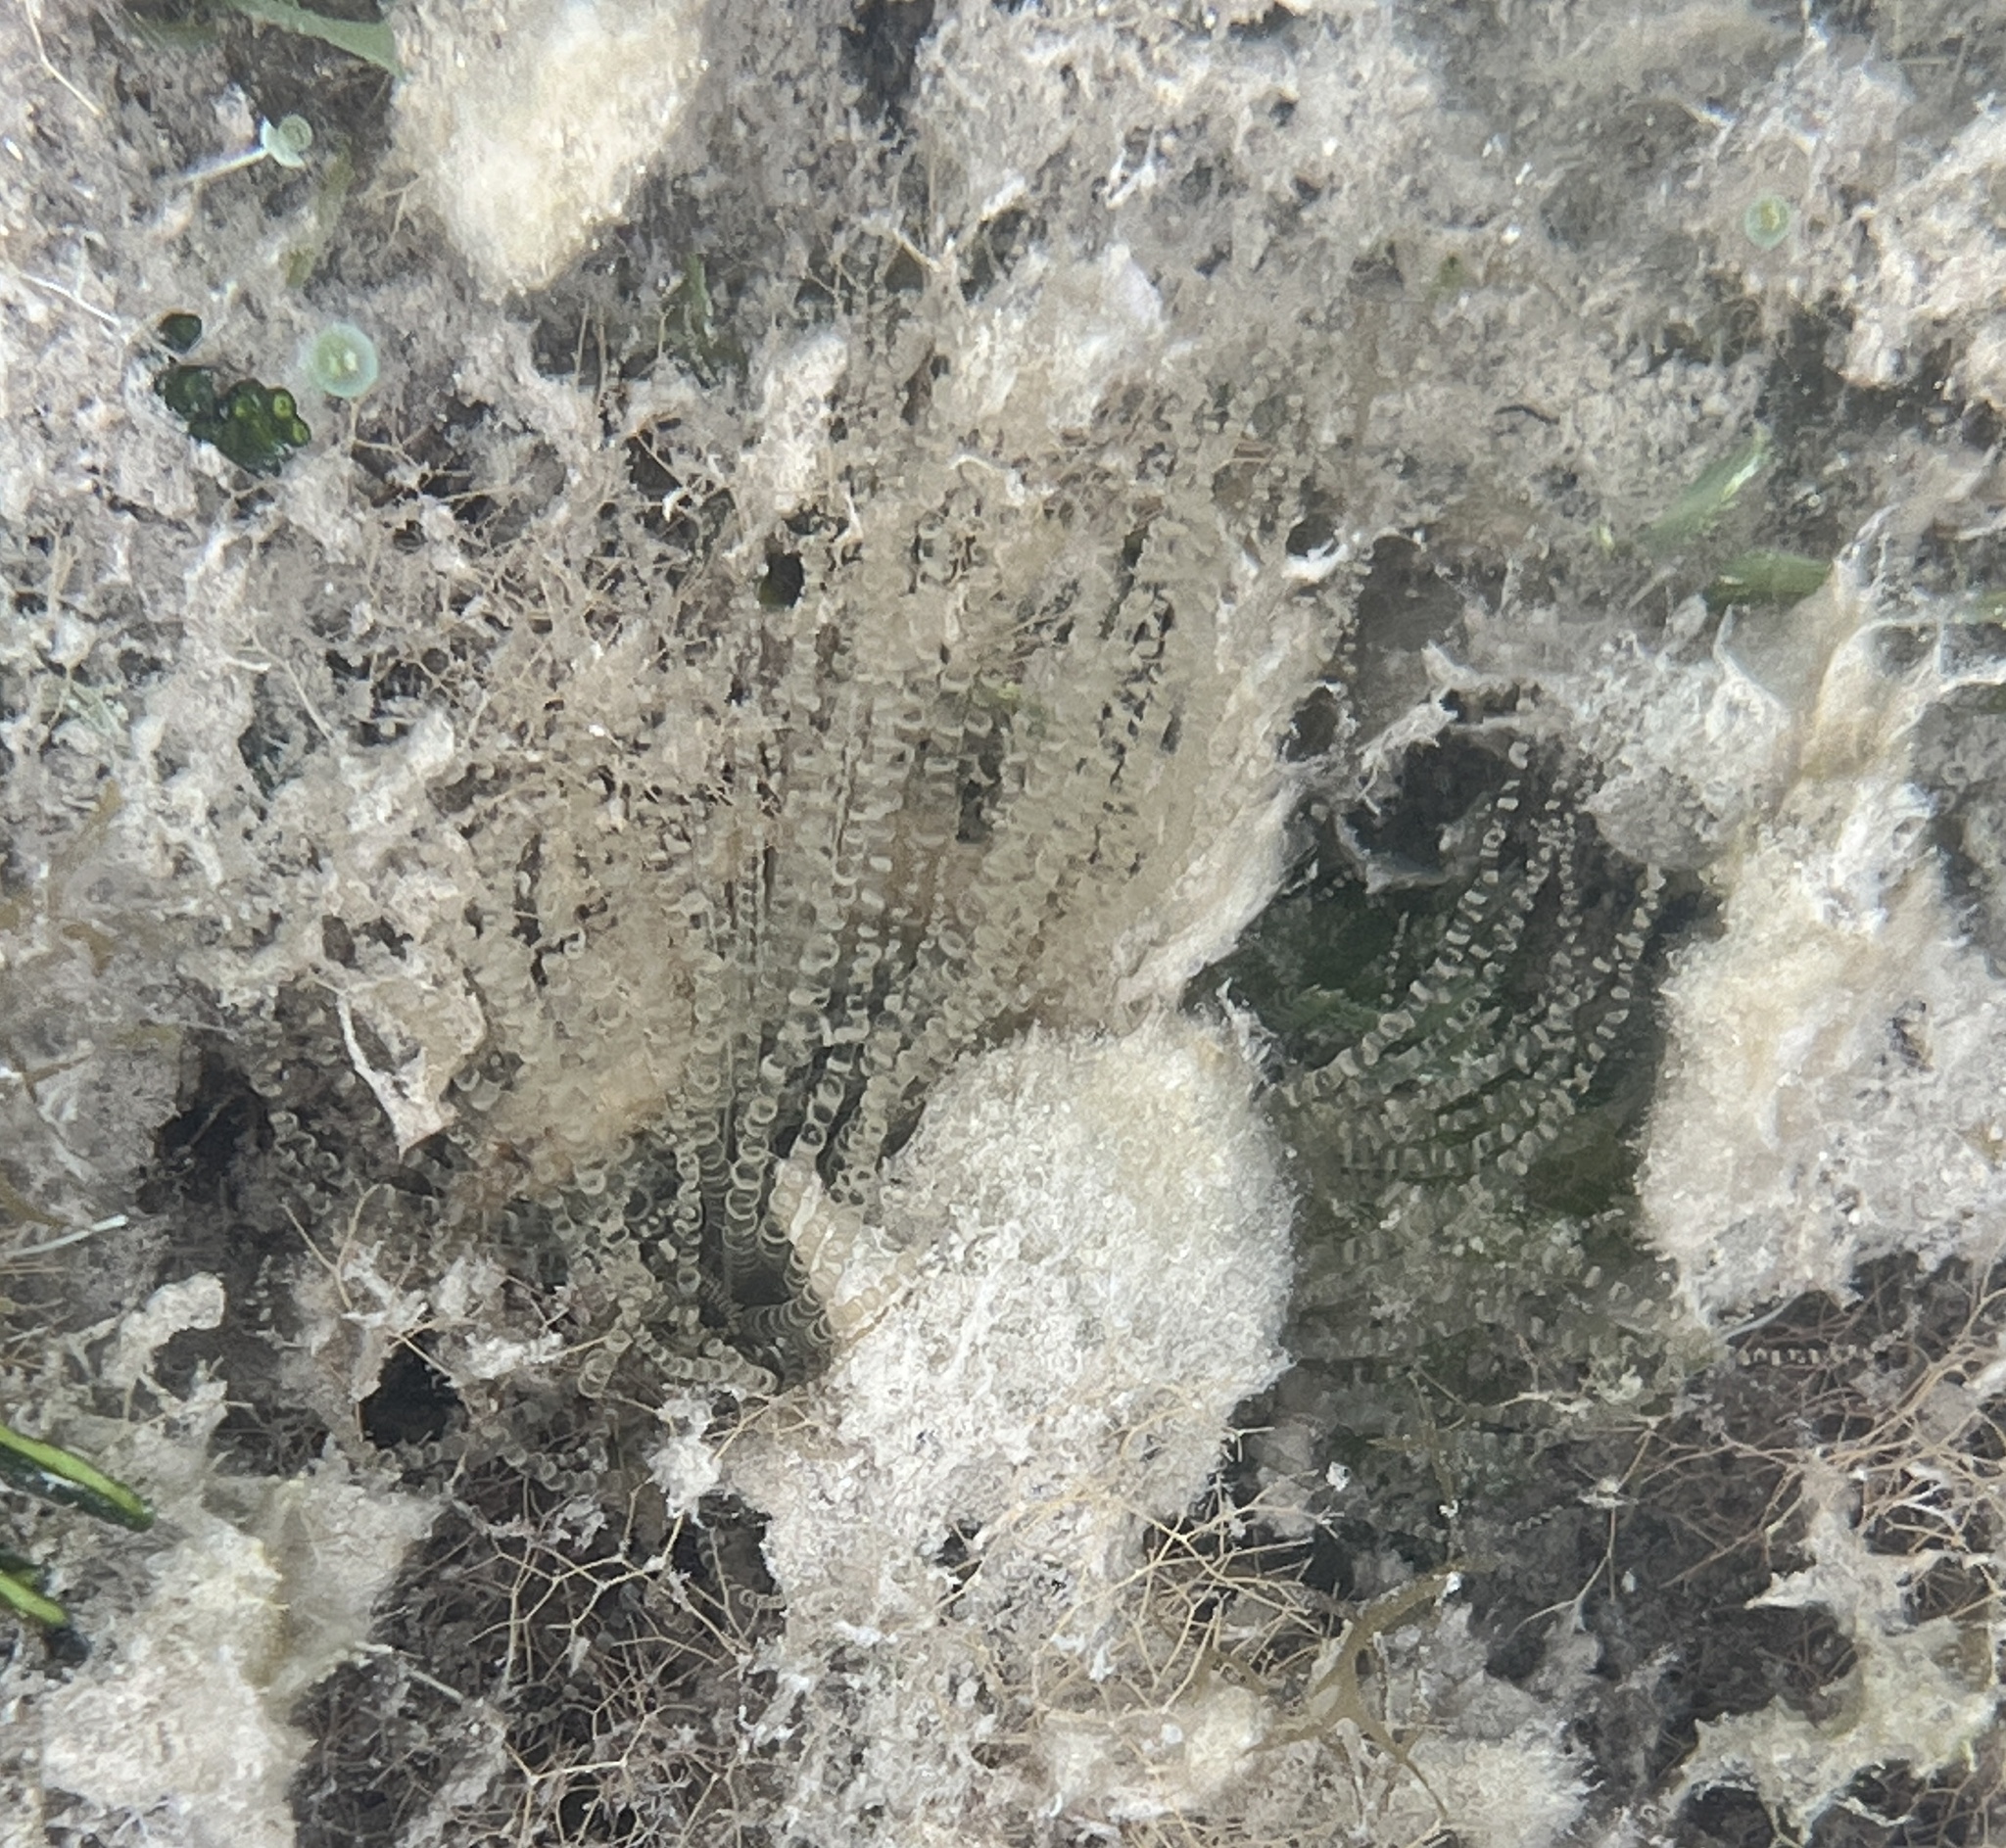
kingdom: Animalia
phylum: Cnidaria
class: Anthozoa
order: Actiniaria
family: Aiptasiidae
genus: Bartholomea
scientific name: Bartholomea annulata
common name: Corkscrew anemone
